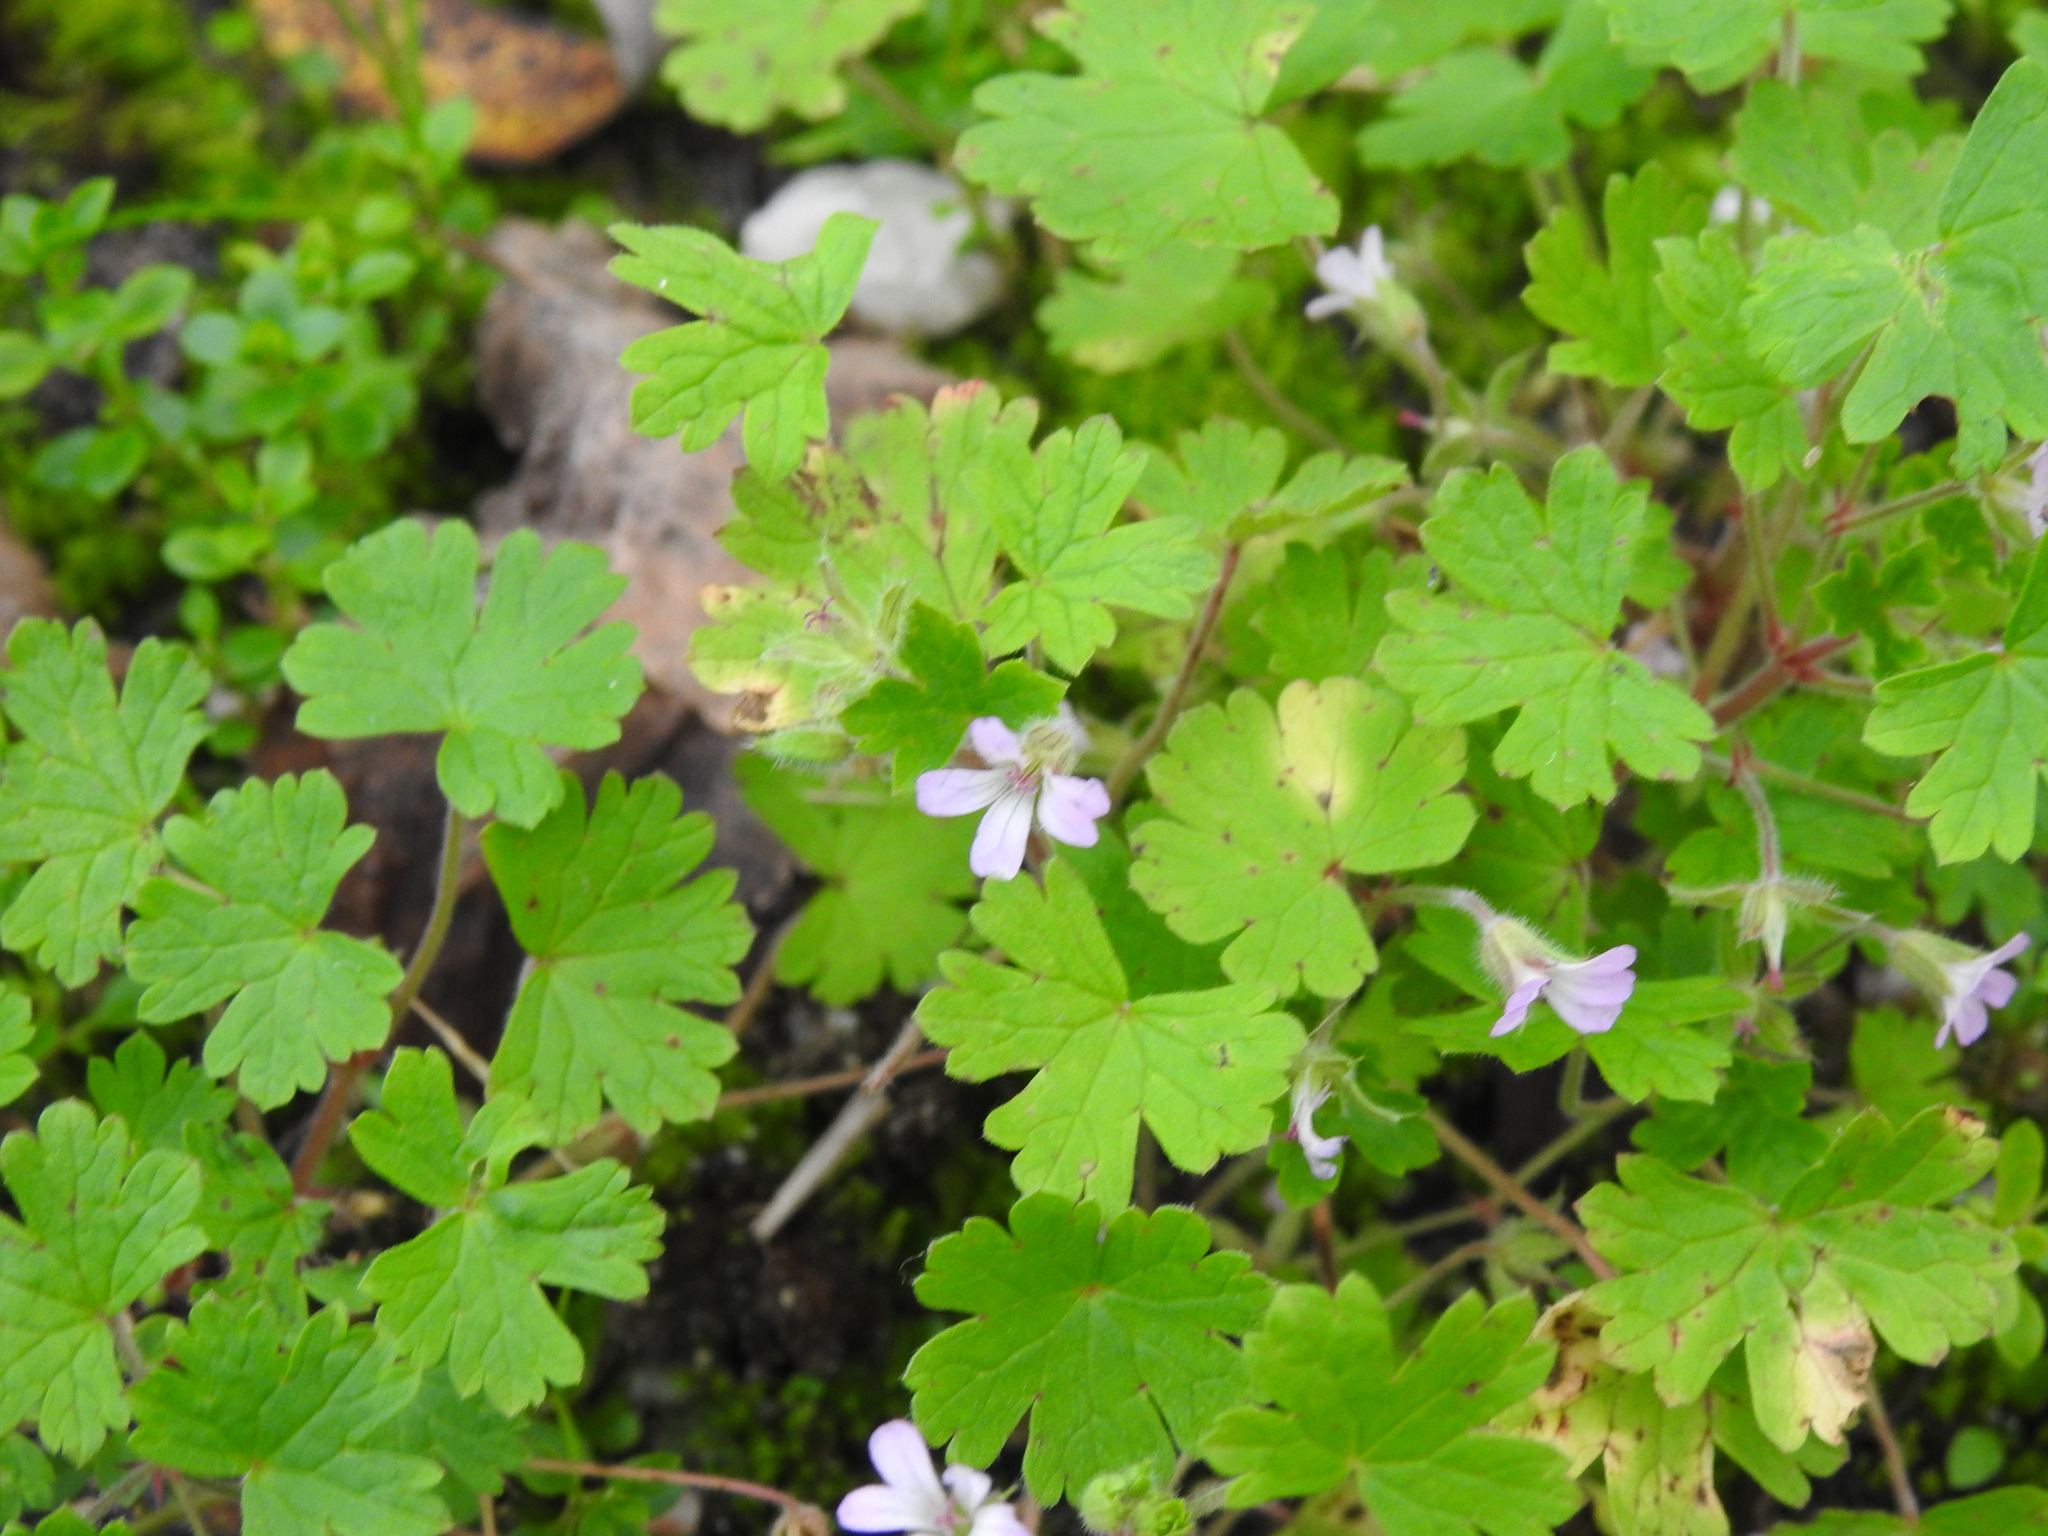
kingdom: Plantae
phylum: Tracheophyta
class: Magnoliopsida
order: Geraniales
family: Geraniaceae
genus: Geranium
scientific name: Geranium rotundifolium
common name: Round-leaved crane's-bill
